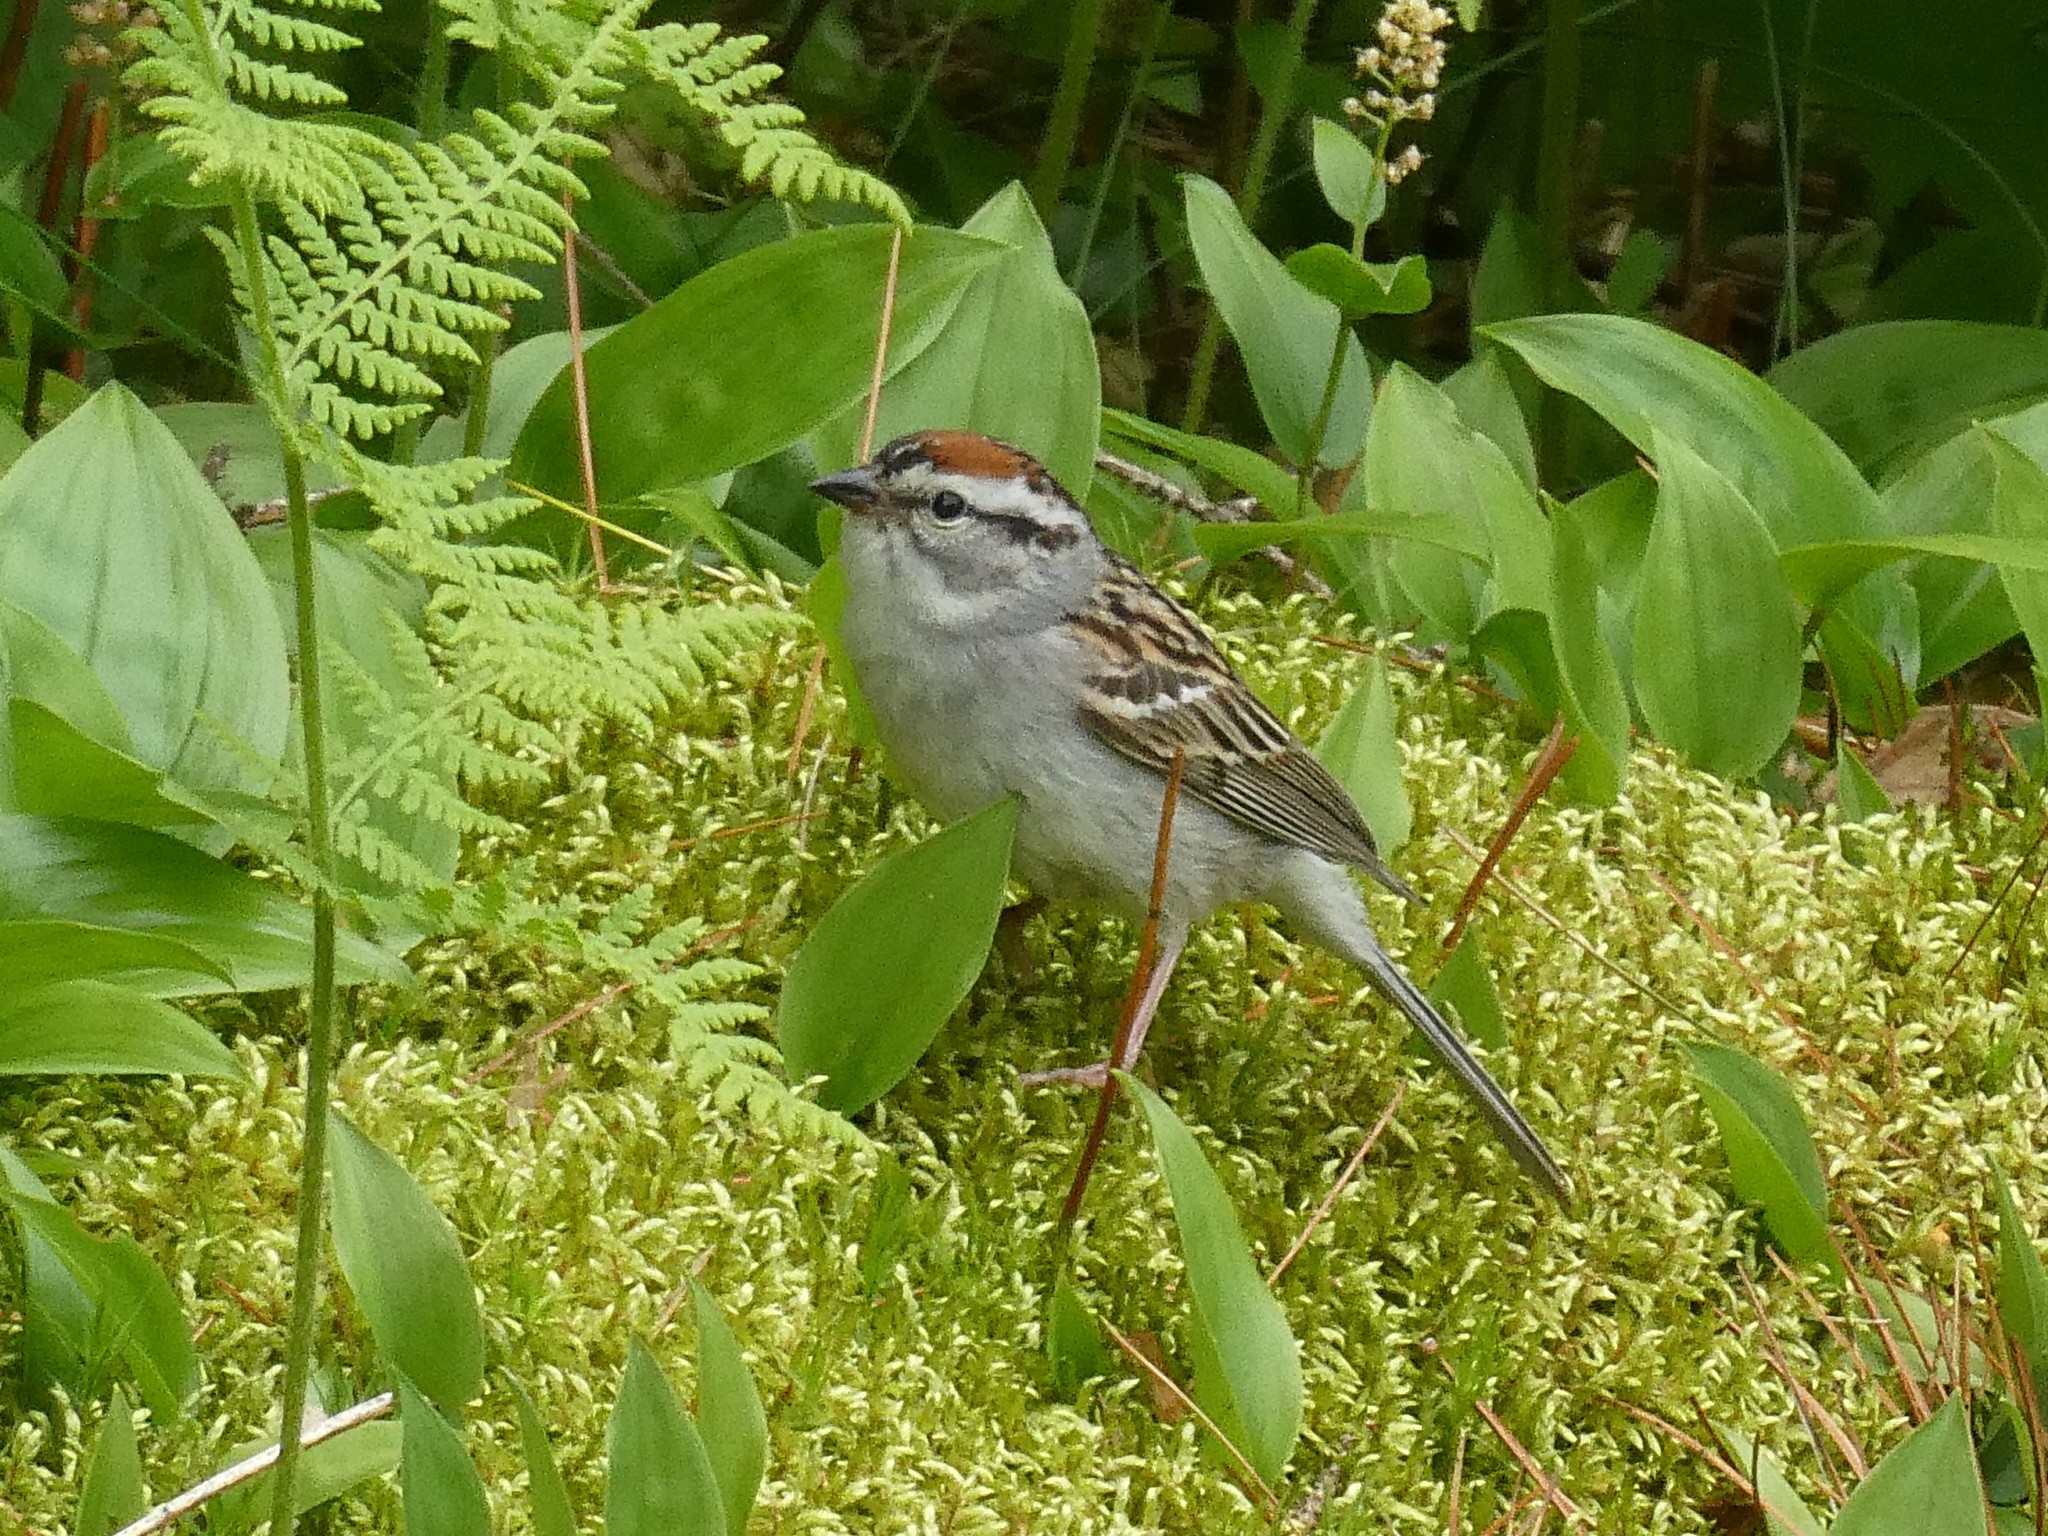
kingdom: Animalia
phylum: Chordata
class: Aves
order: Passeriformes
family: Passerellidae
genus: Spizella
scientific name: Spizella passerina
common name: Chipping sparrow
